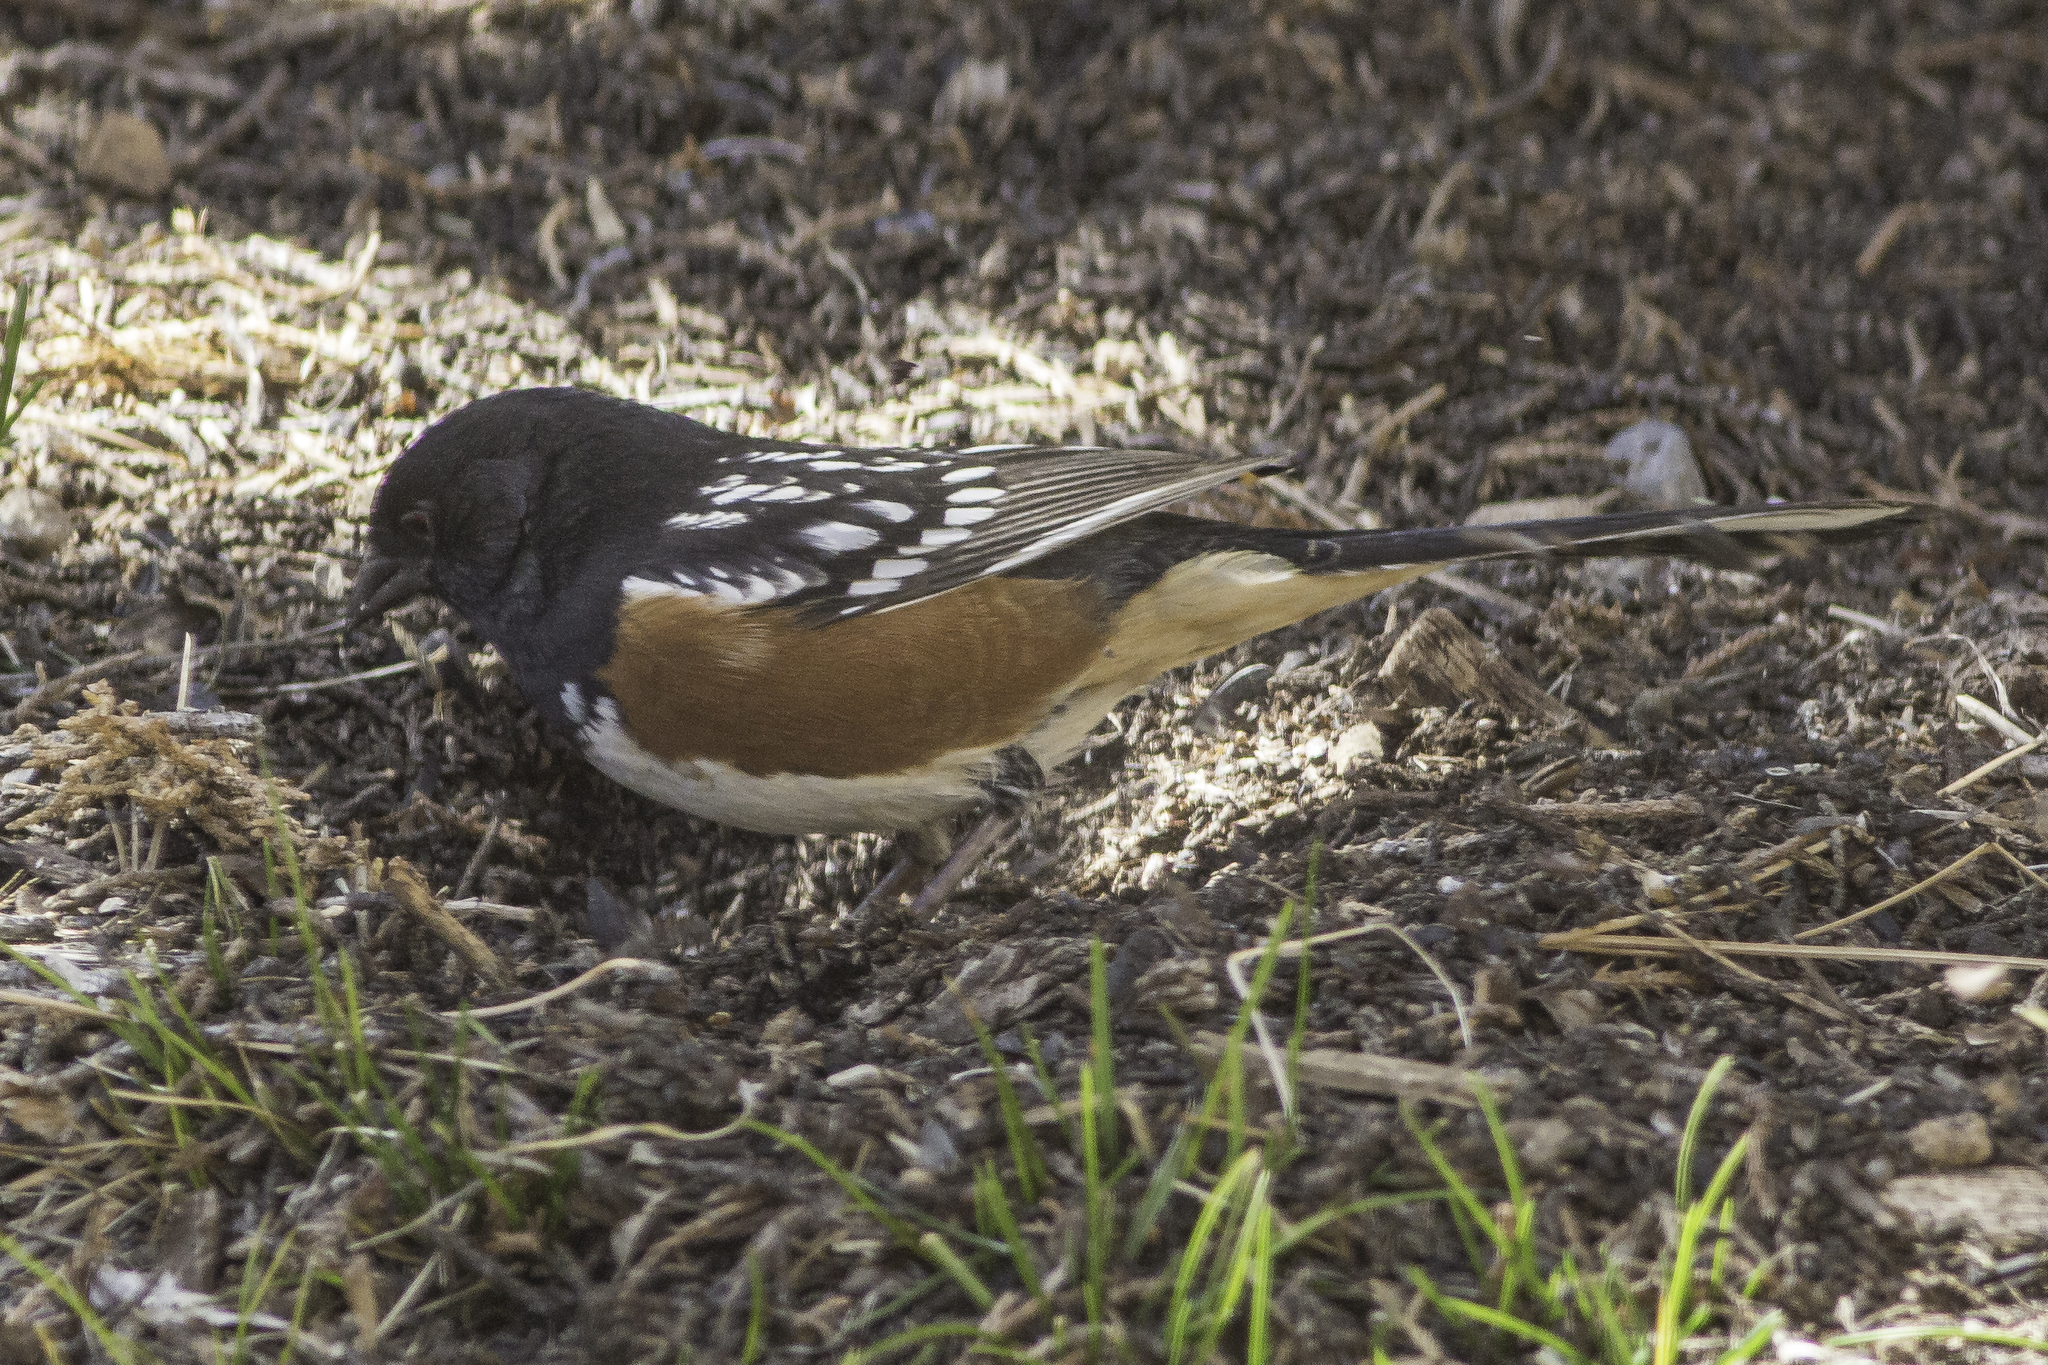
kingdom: Animalia
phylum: Chordata
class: Aves
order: Passeriformes
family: Passerellidae
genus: Pipilo
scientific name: Pipilo maculatus
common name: Spotted towhee
